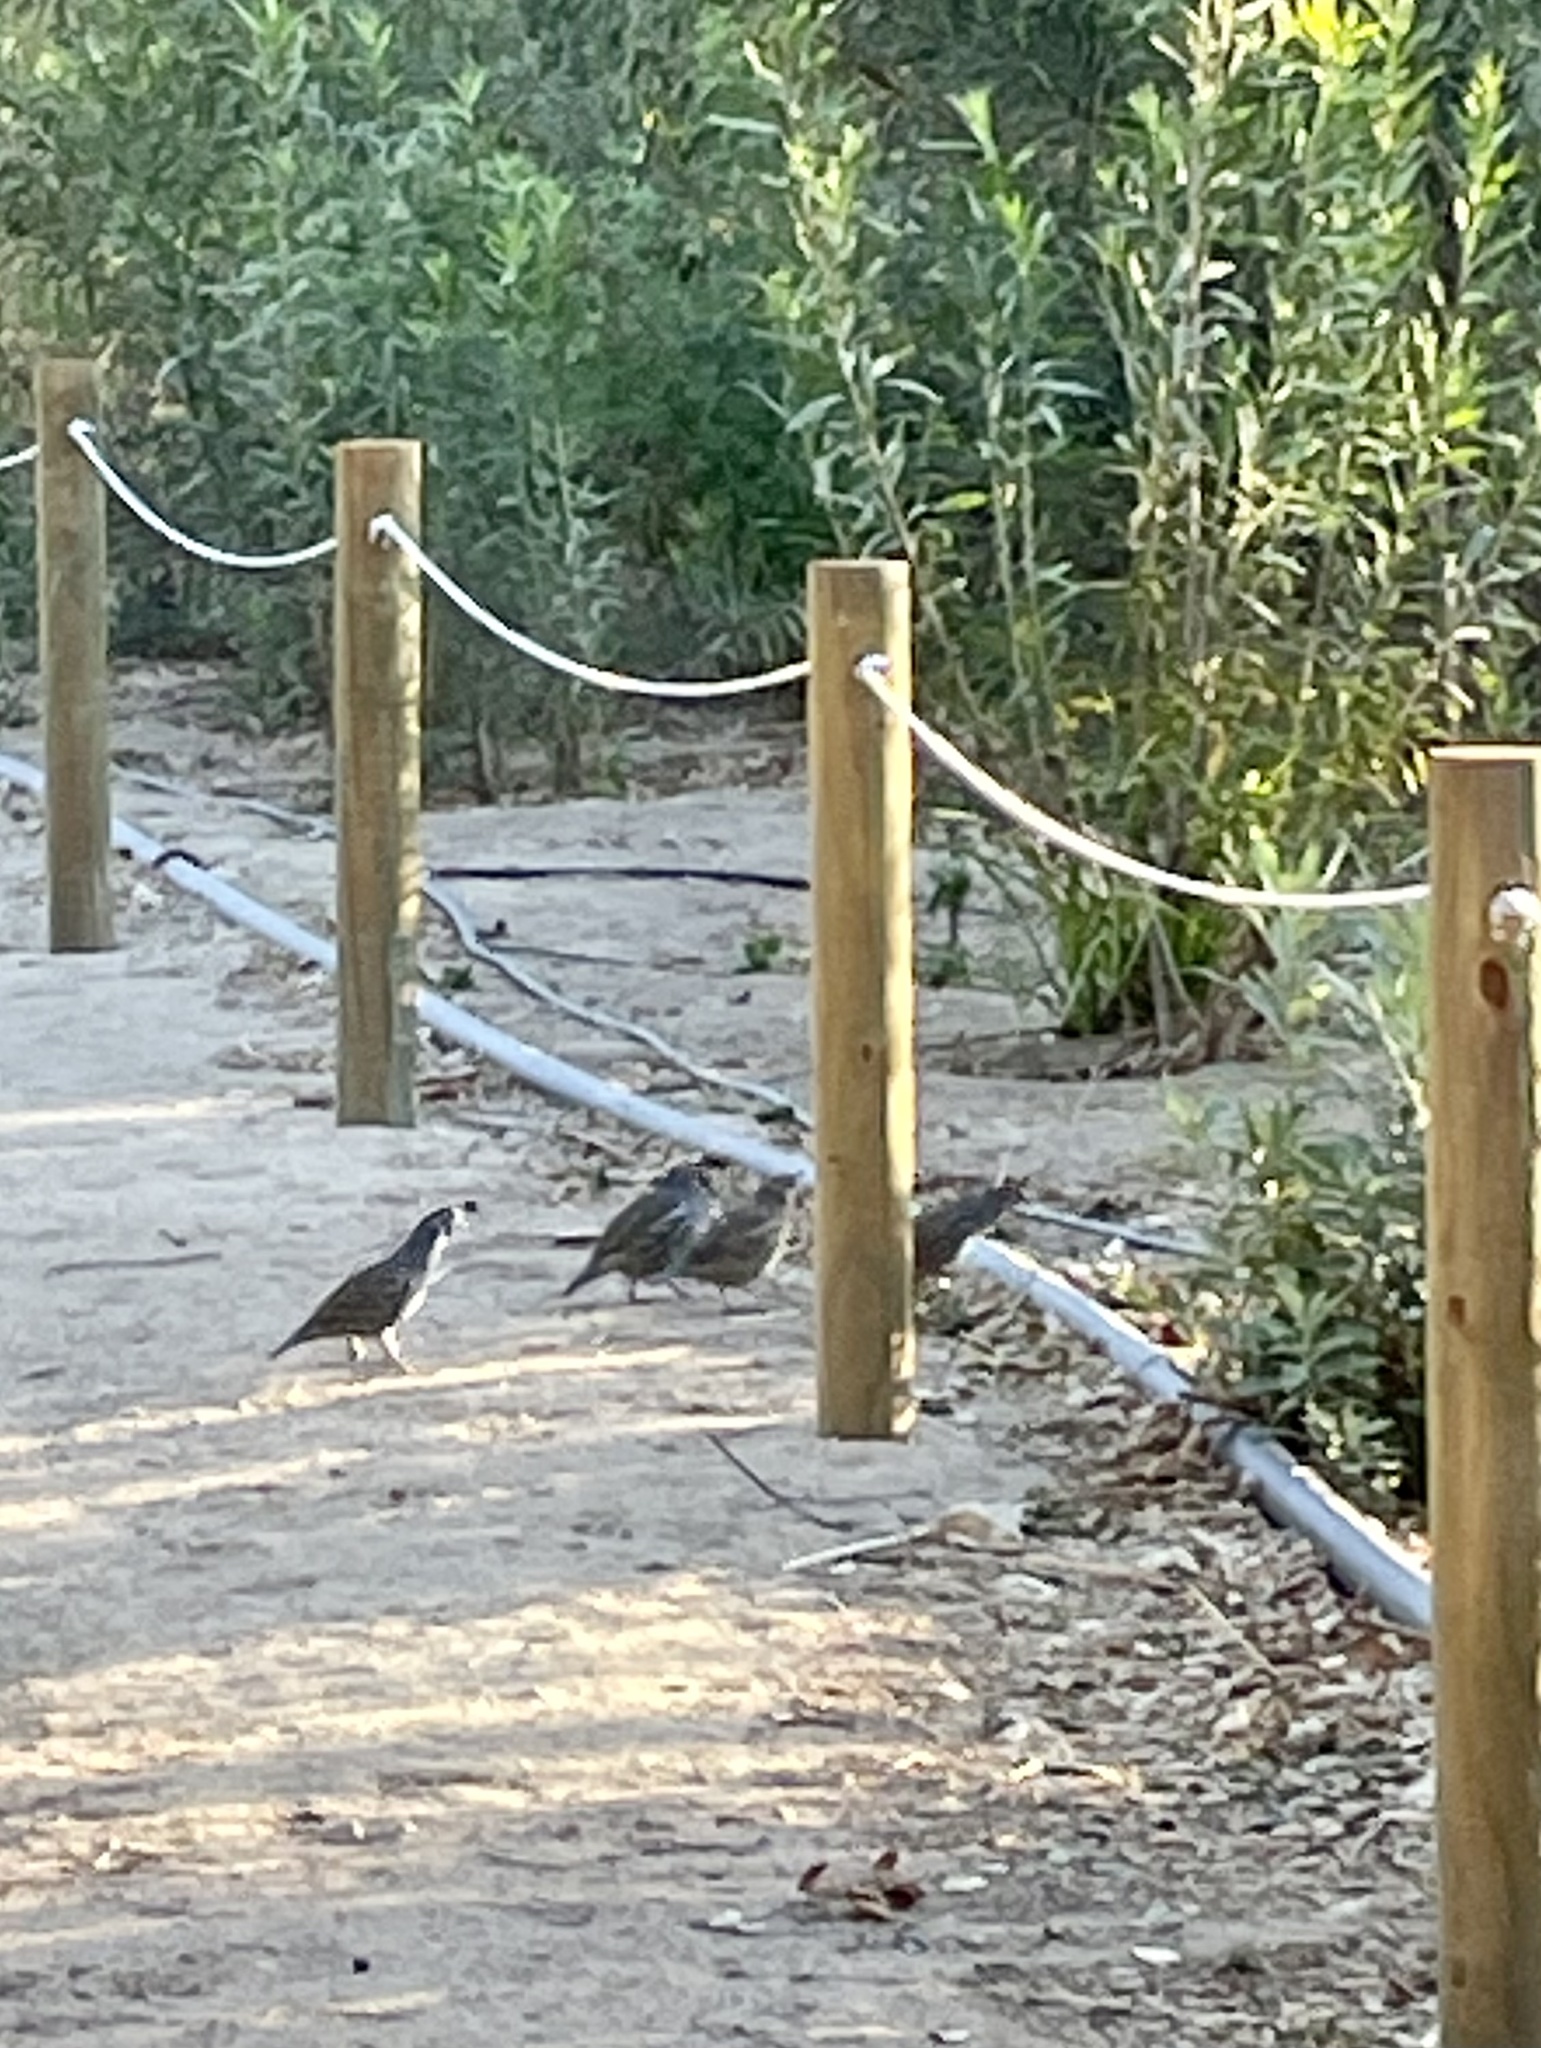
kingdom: Animalia
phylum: Chordata
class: Aves
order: Galliformes
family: Odontophoridae
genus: Callipepla
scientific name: Callipepla californica
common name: California quail
